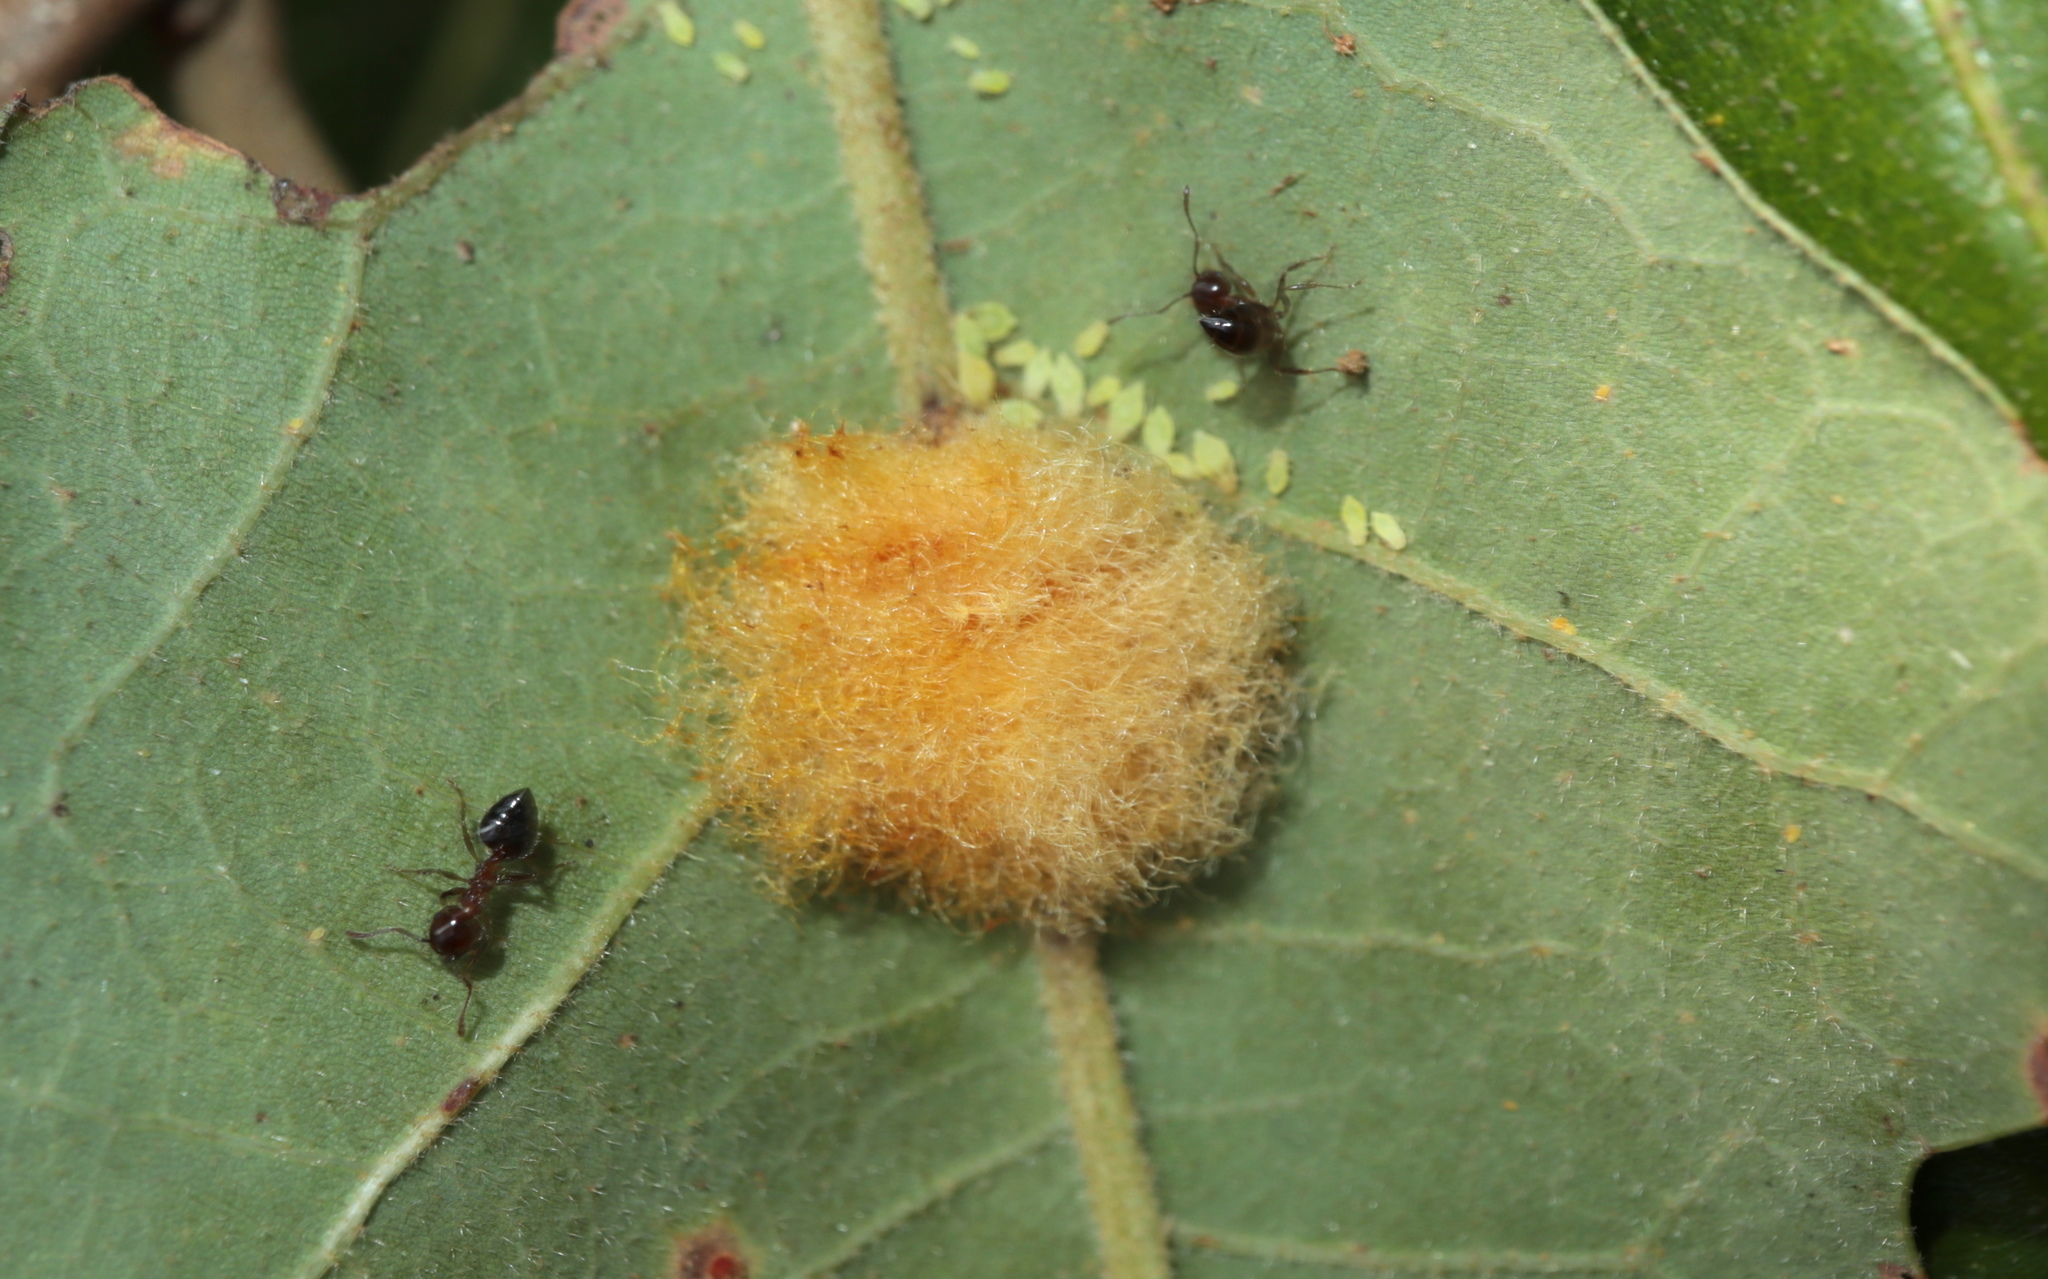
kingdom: Animalia
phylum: Arthropoda
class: Insecta
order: Hymenoptera
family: Cynipidae
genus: Andricus
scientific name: Andricus Druon pattoni
